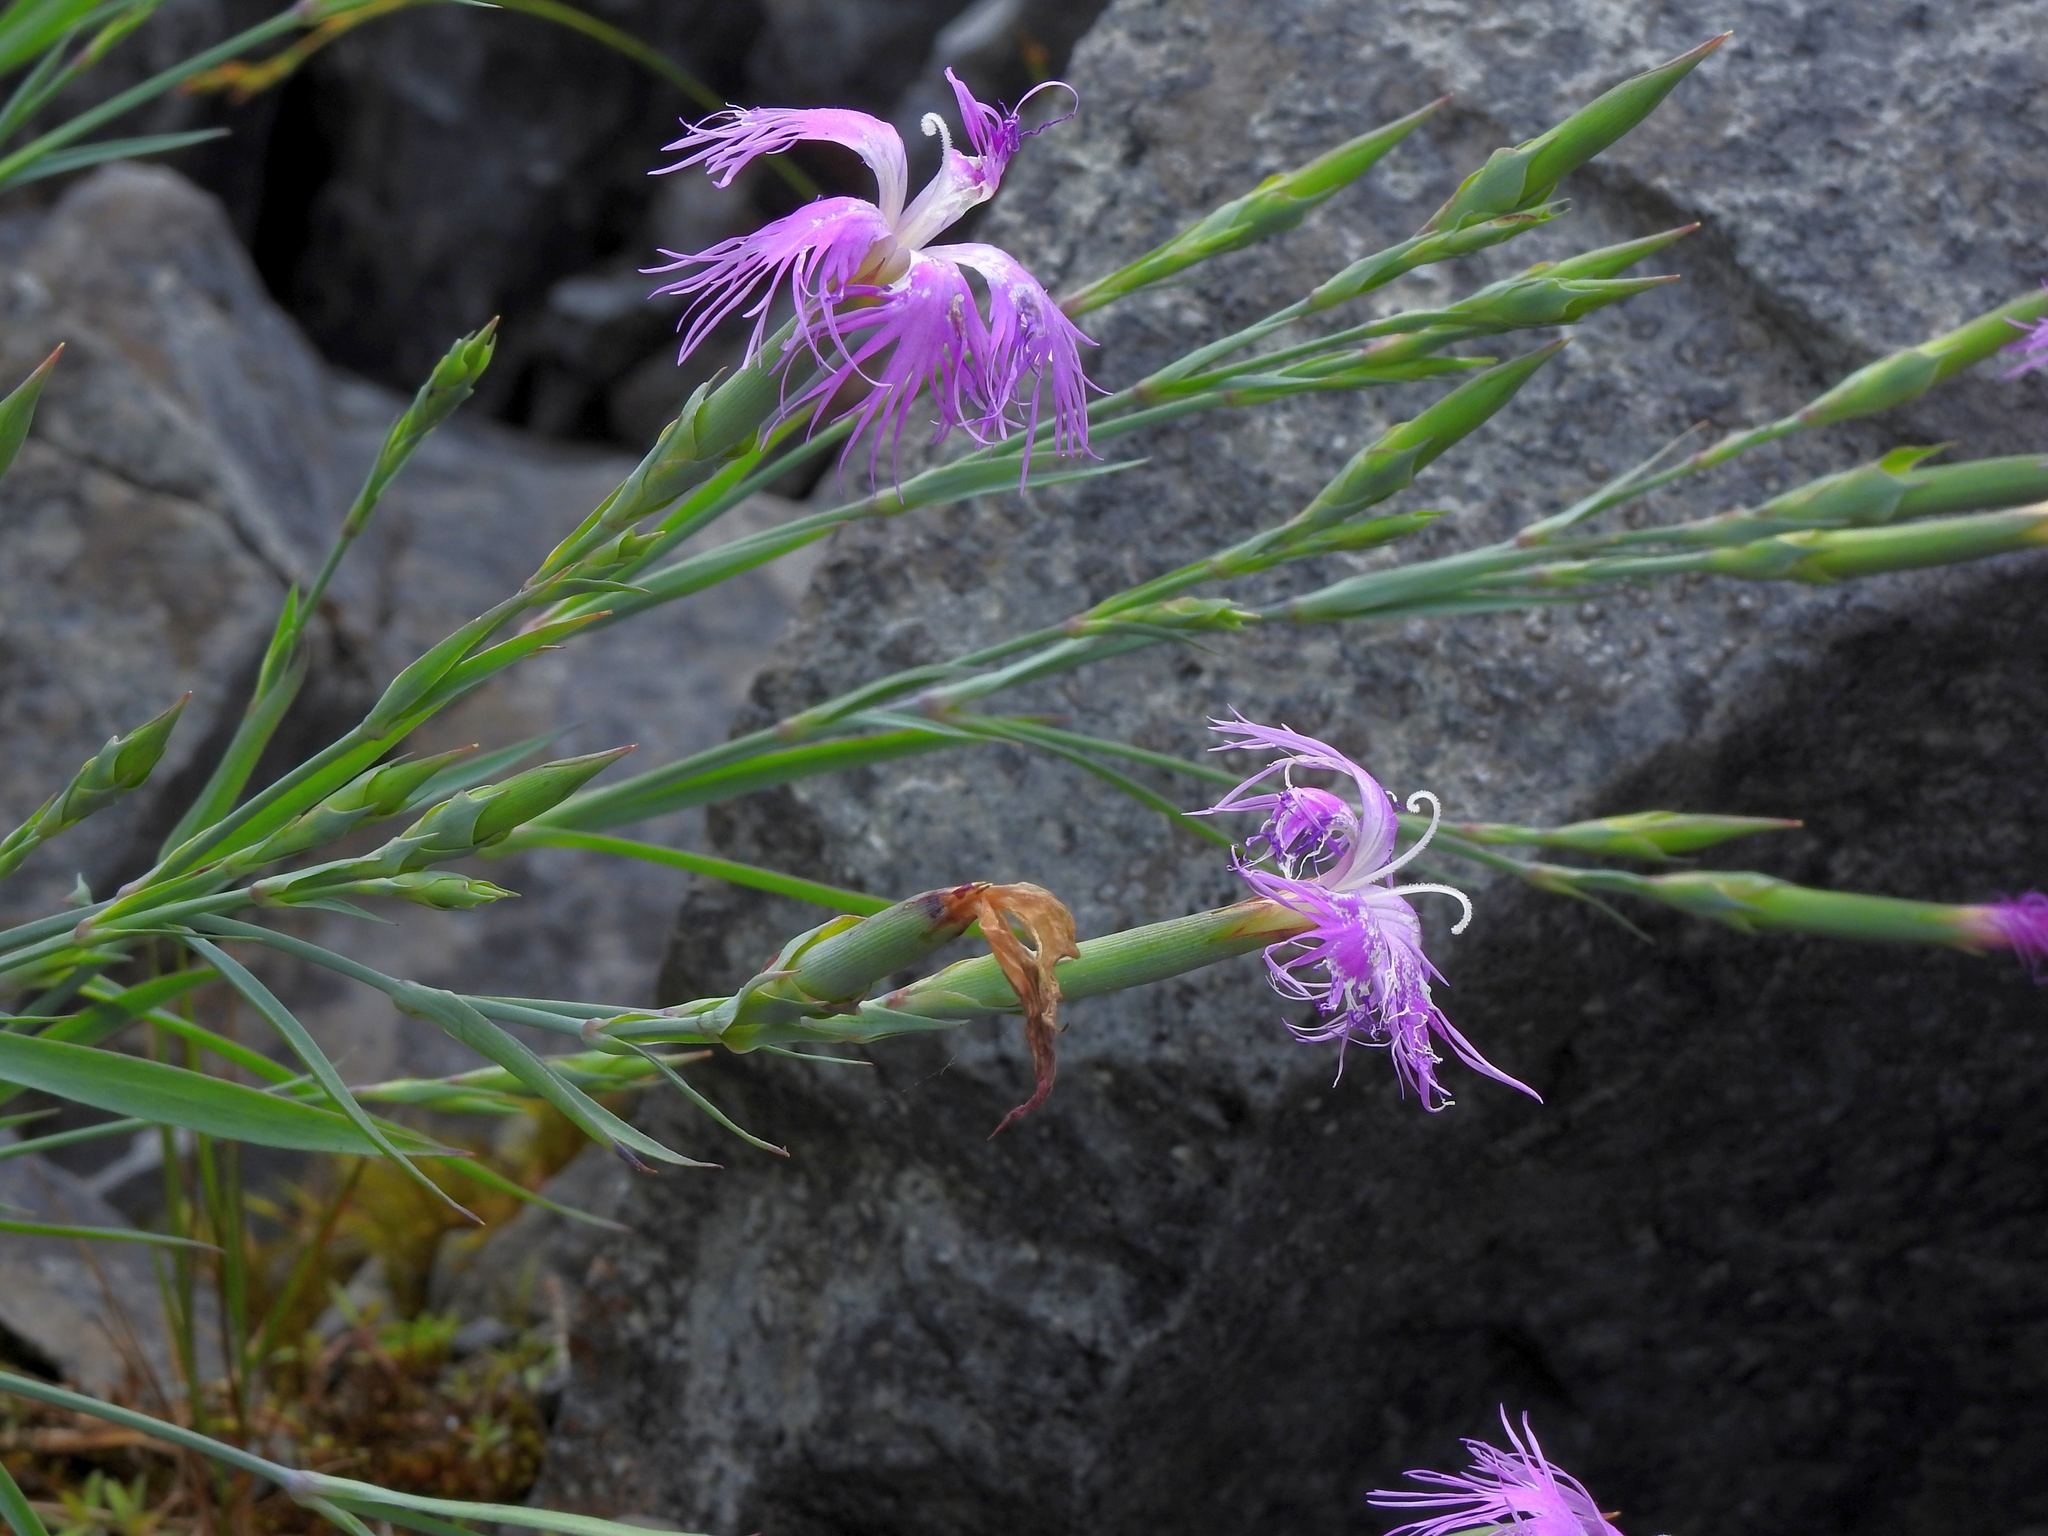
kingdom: Plantae
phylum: Tracheophyta
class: Magnoliopsida
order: Caryophyllales
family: Caryophyllaceae
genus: Dianthus
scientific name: Dianthus seisuimontanus
